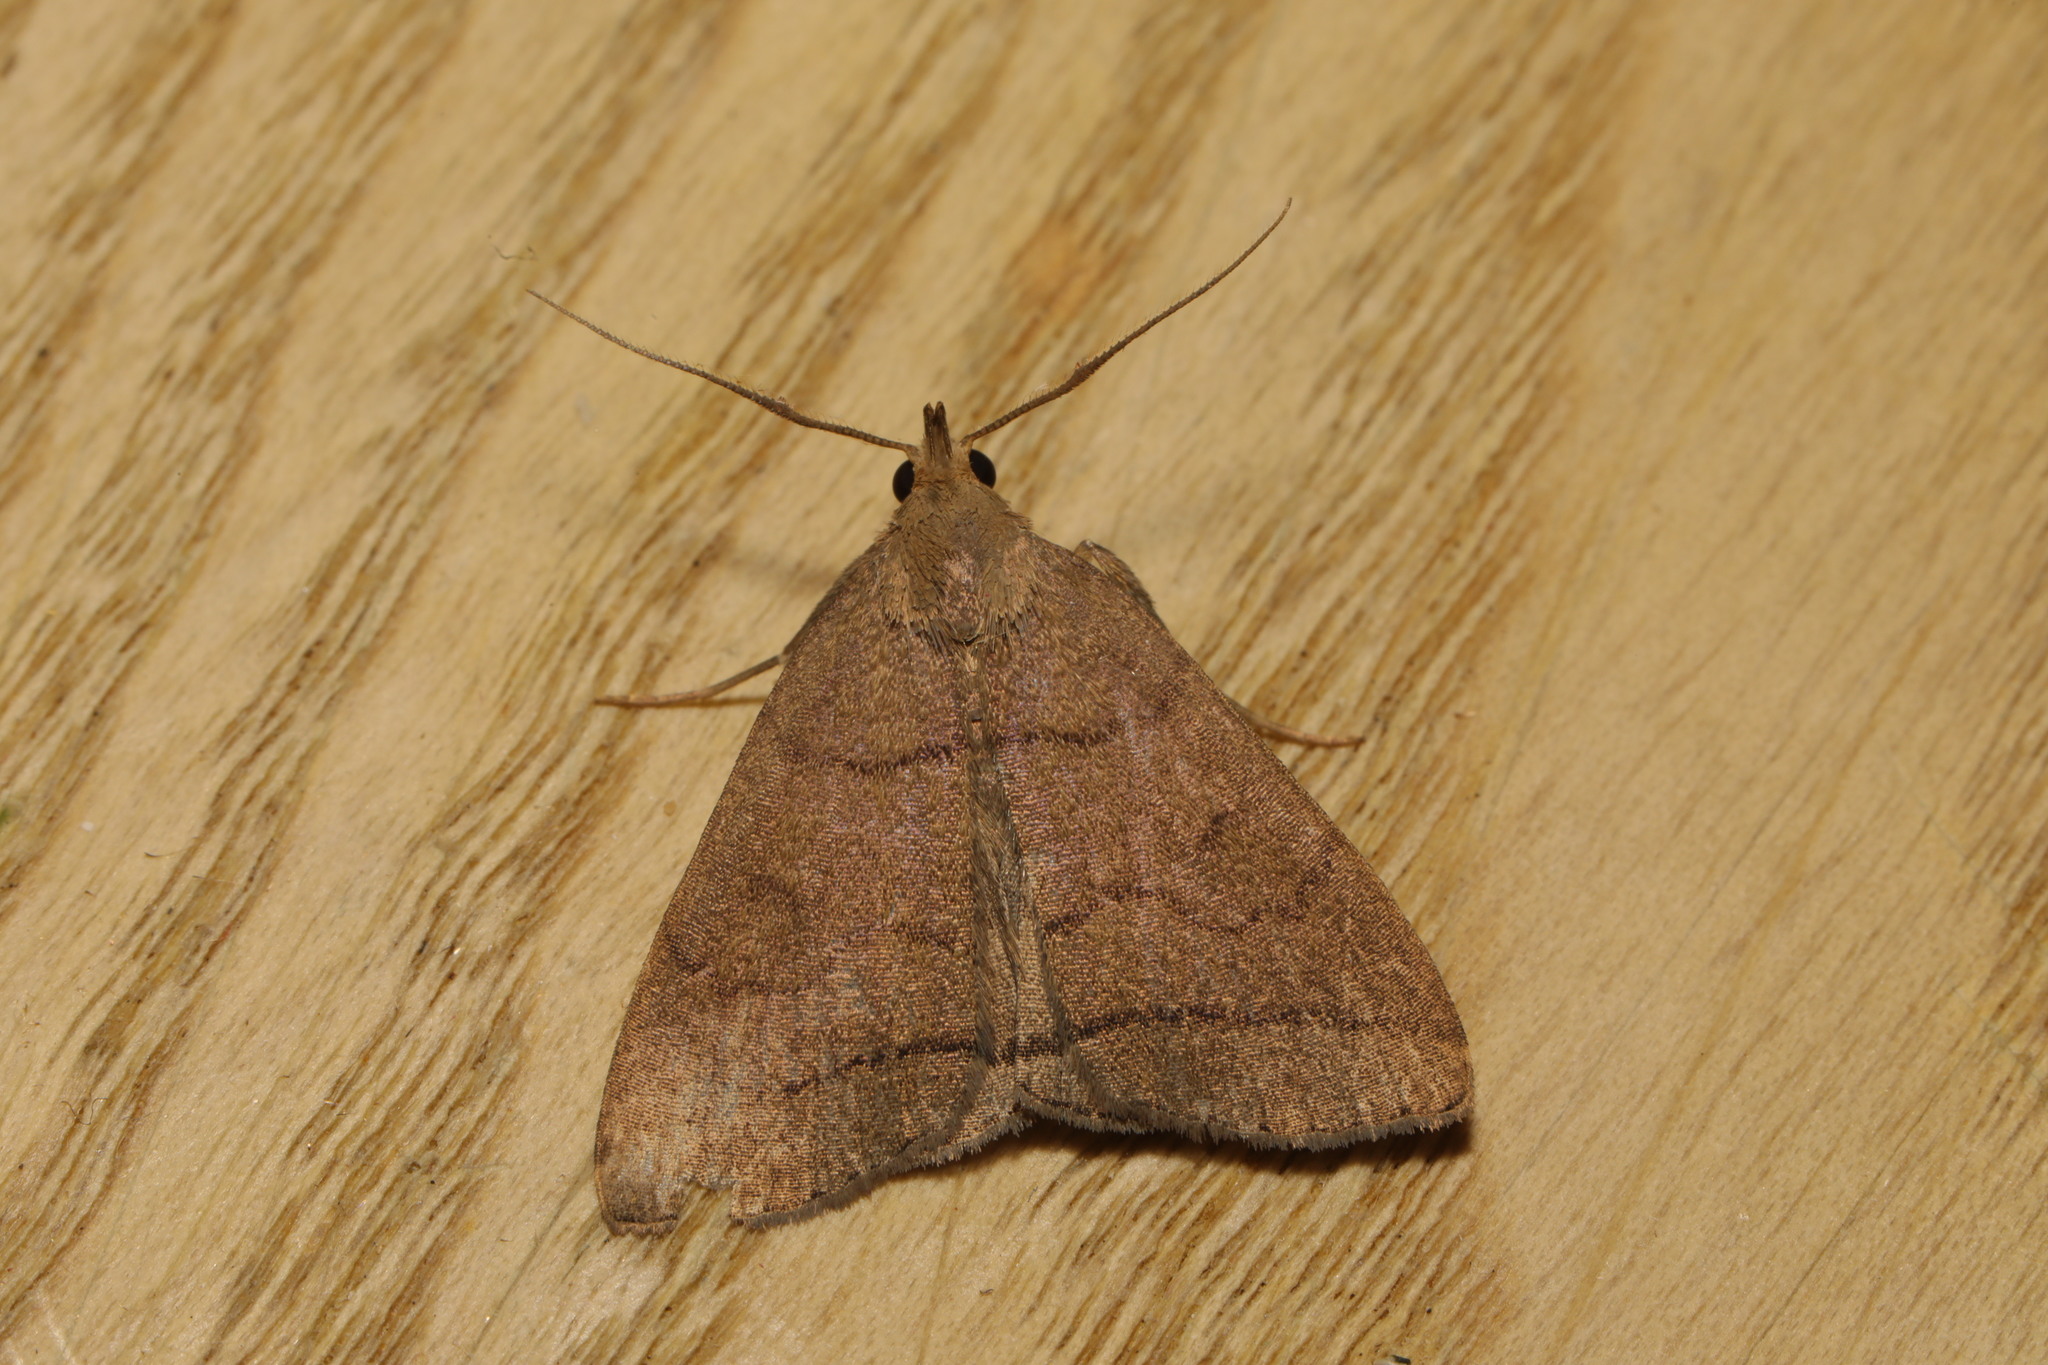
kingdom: Animalia
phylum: Arthropoda
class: Insecta
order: Lepidoptera
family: Erebidae
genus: Herminia
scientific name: Herminia tarsipennalis
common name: Fan-foot
